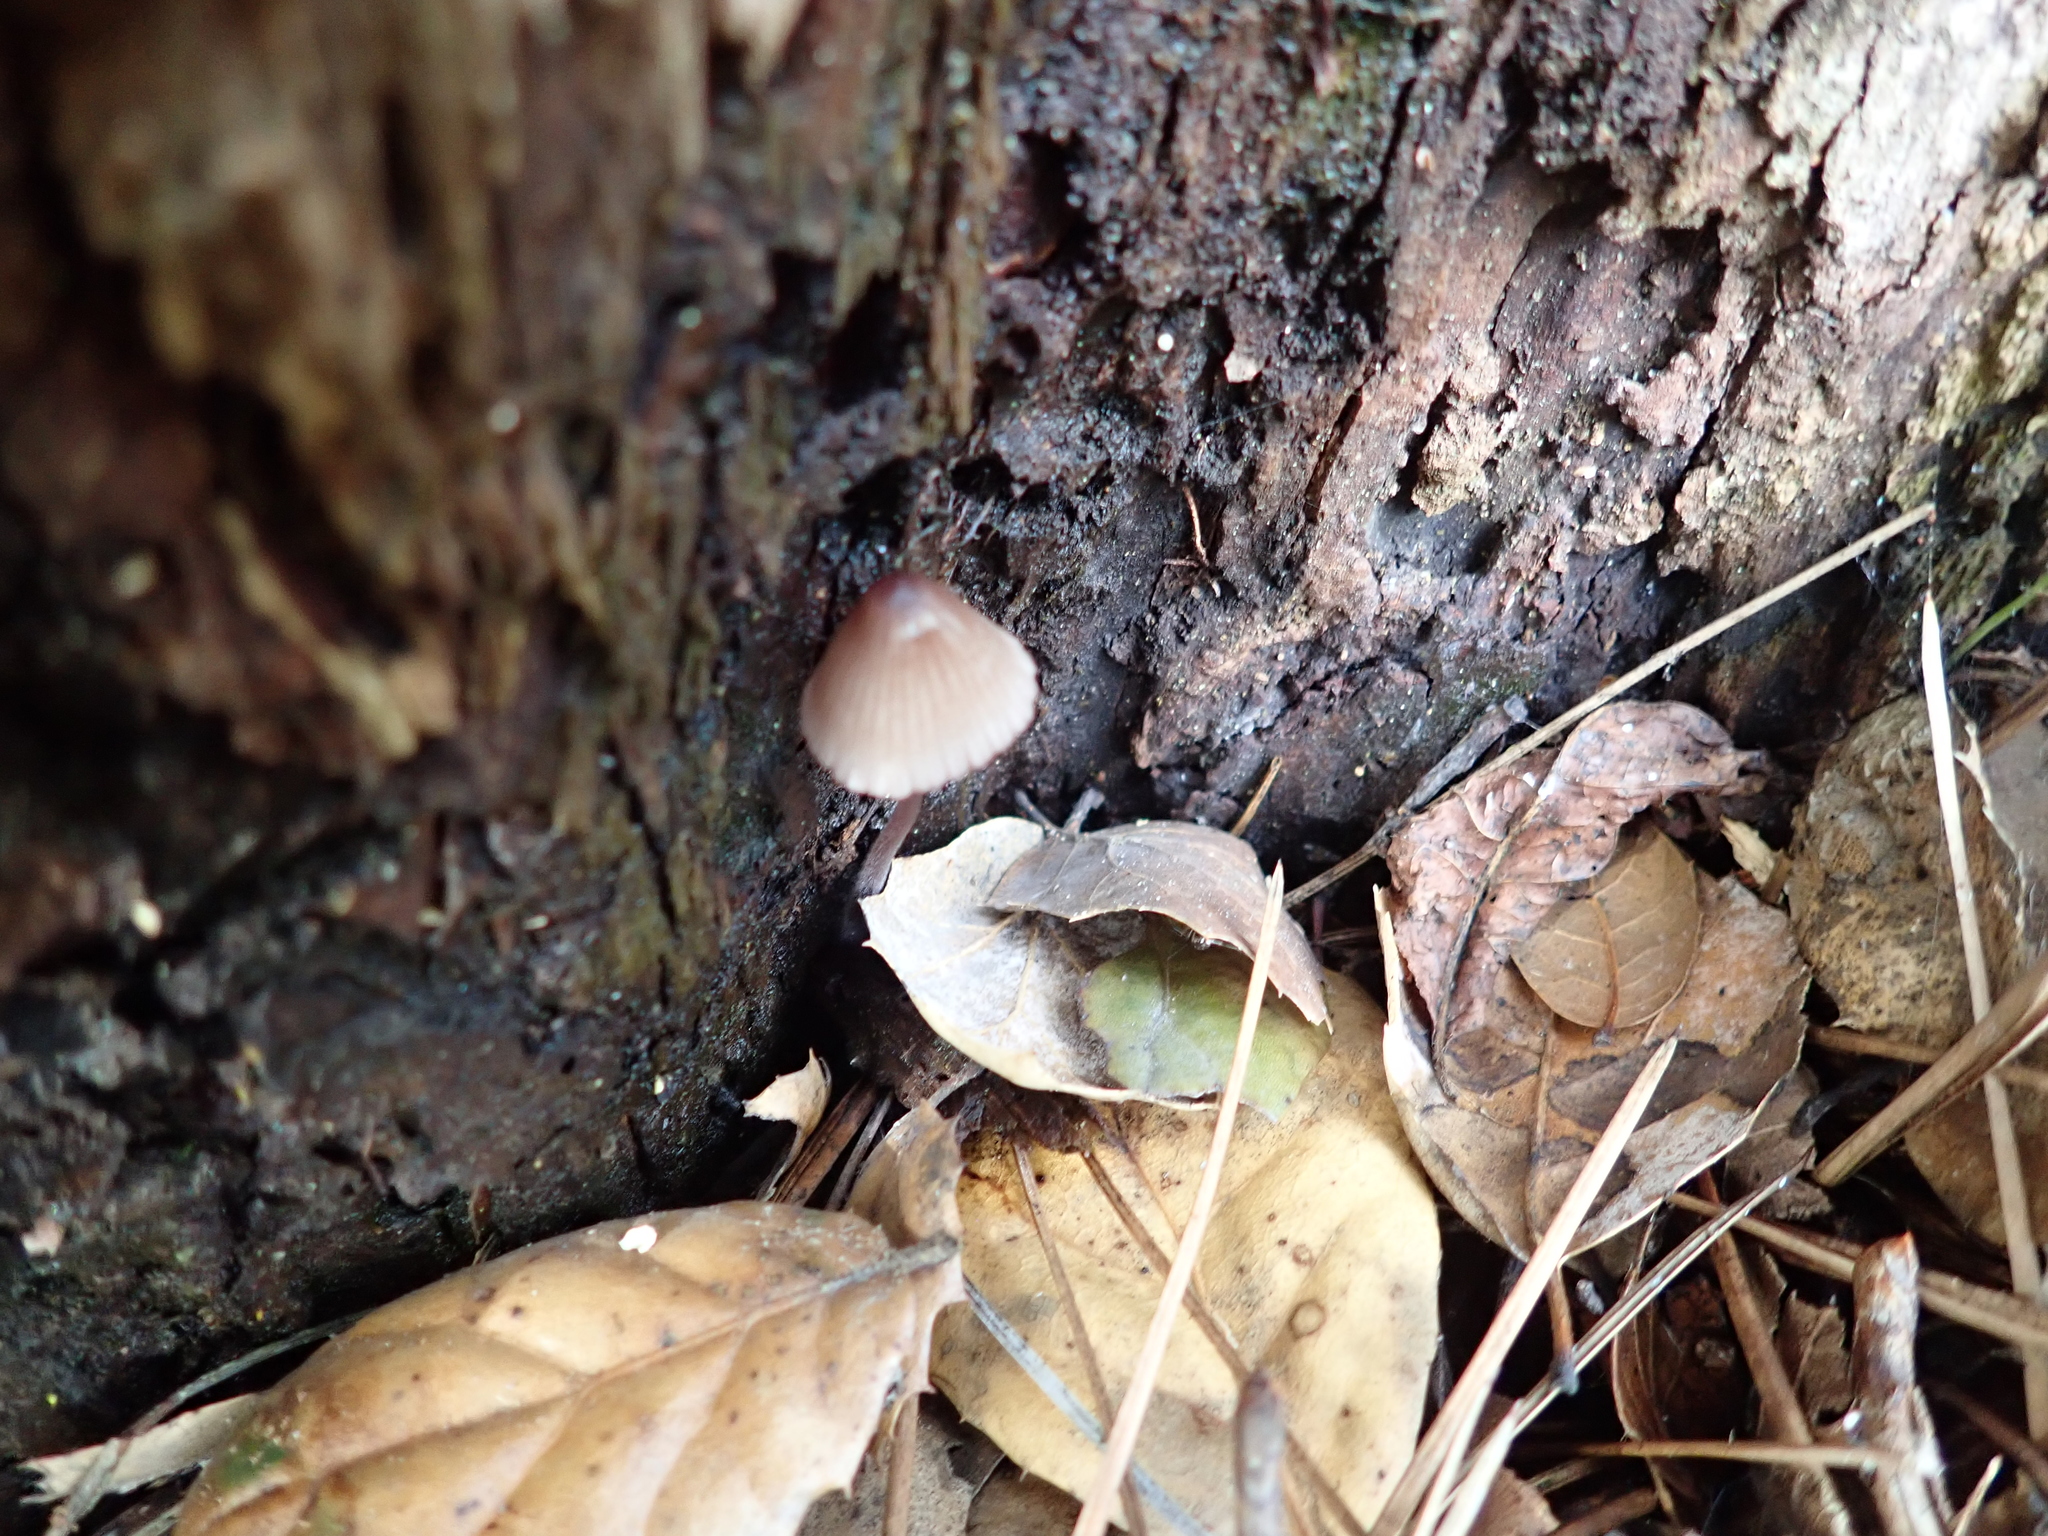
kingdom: Fungi
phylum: Basidiomycota
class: Agaricomycetes
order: Agaricales
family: Mycenaceae
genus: Mycena
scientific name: Mycena purpureofusca
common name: Purple edge bonnet
